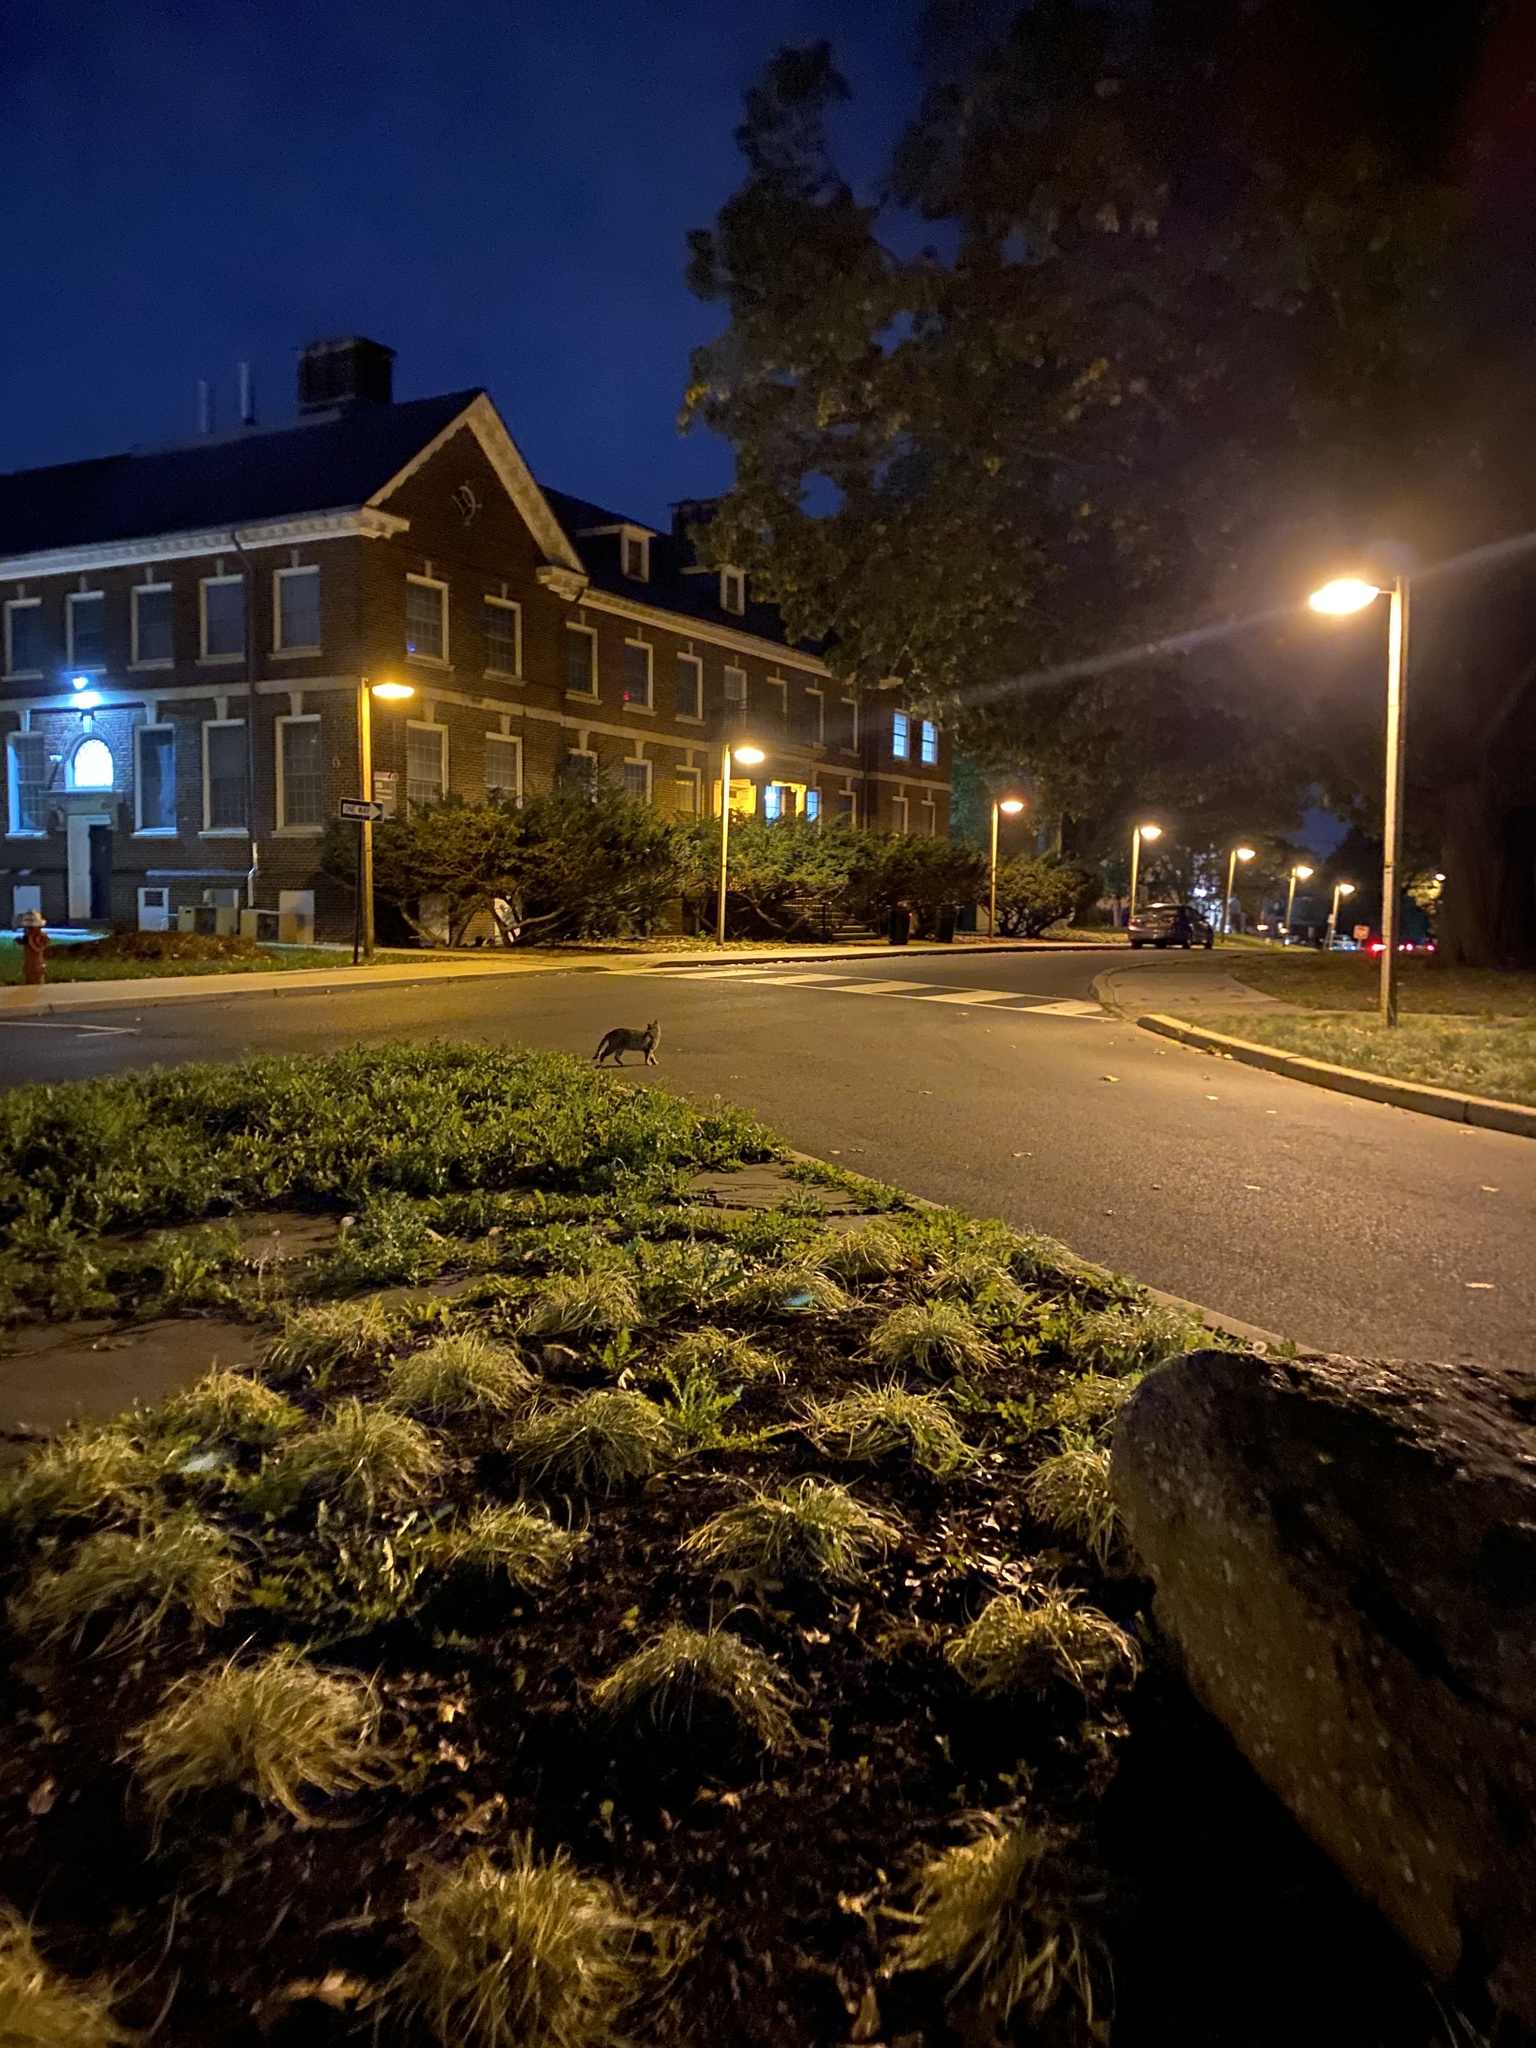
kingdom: Animalia
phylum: Chordata
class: Mammalia
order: Carnivora
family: Felidae
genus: Felis
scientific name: Felis catus
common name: Domestic cat
